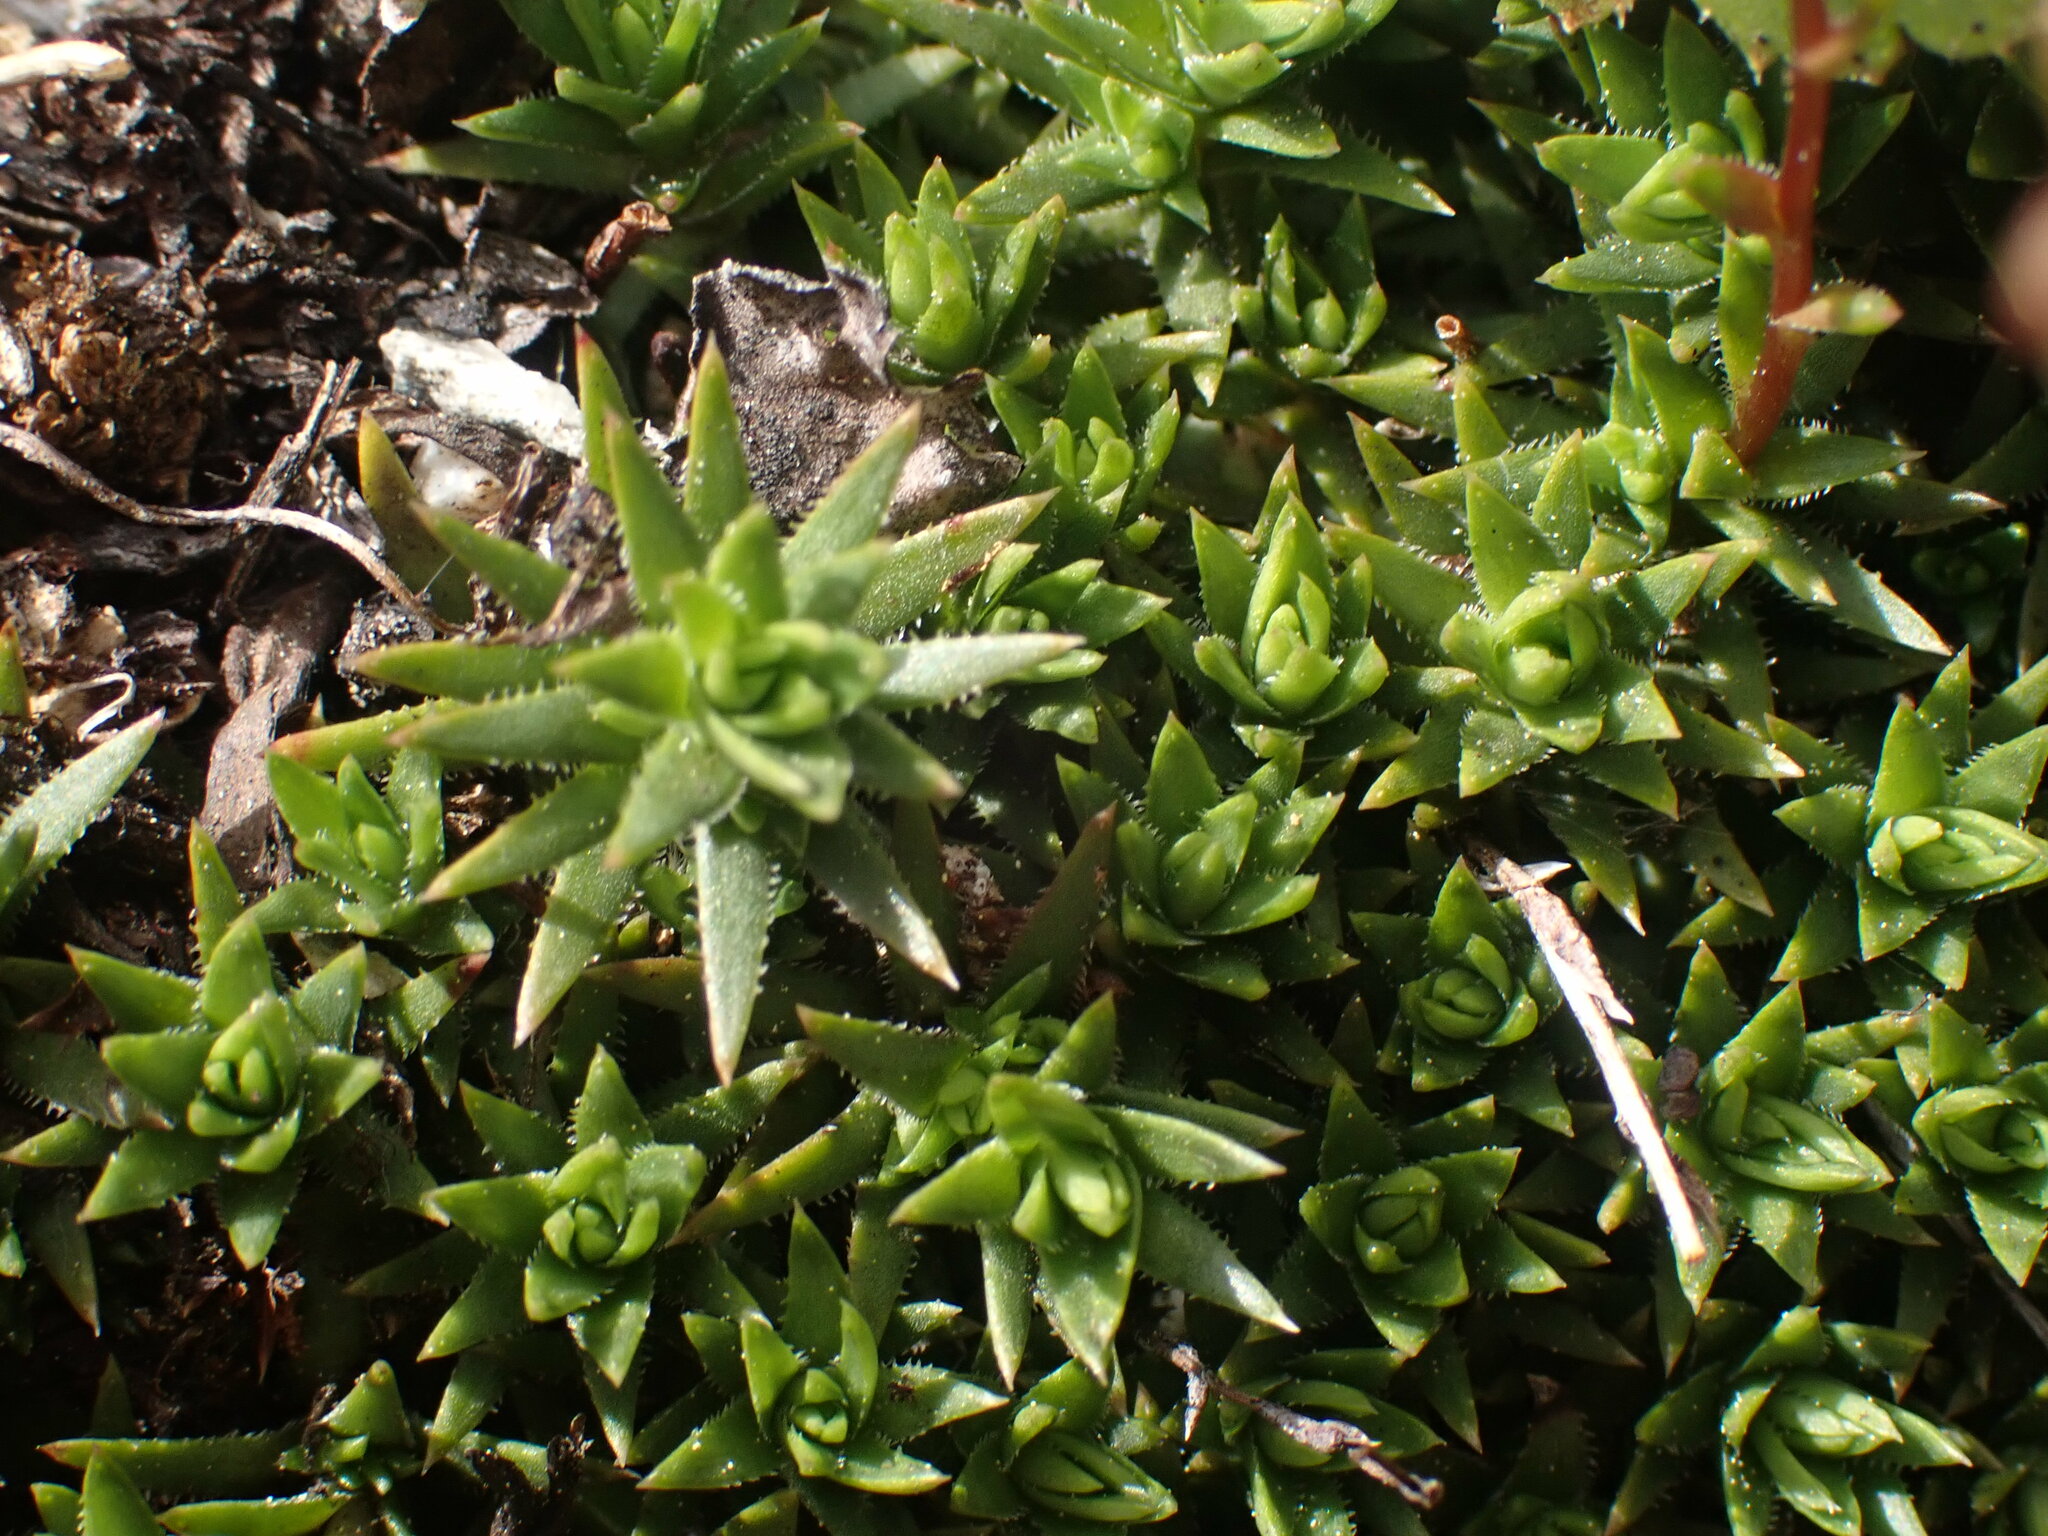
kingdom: Plantae
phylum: Tracheophyta
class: Magnoliopsida
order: Saxifragales
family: Saxifragaceae
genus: Saxifraga
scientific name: Saxifraga bronchialis
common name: Matted saxifrage
